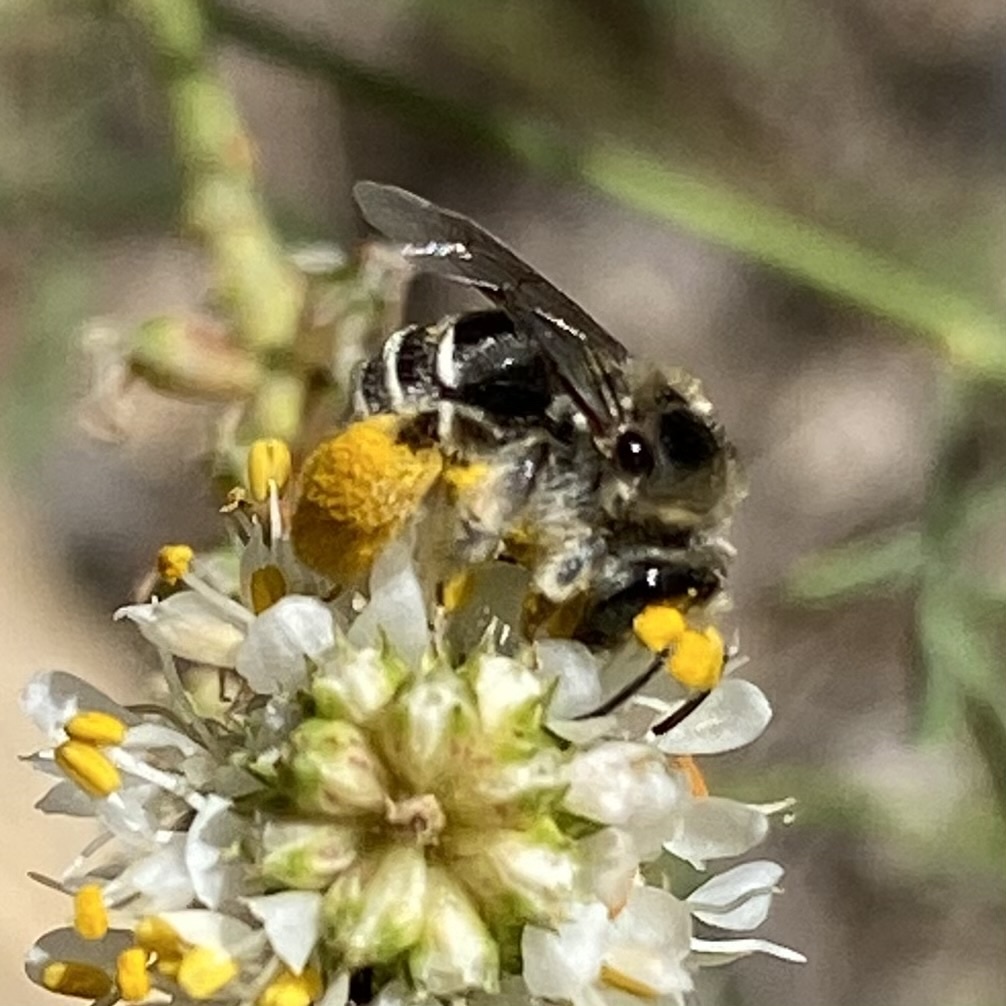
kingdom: Animalia
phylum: Arthropoda
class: Insecta
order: Hymenoptera
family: Apidae
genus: Exomalopsis
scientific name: Exomalopsis
